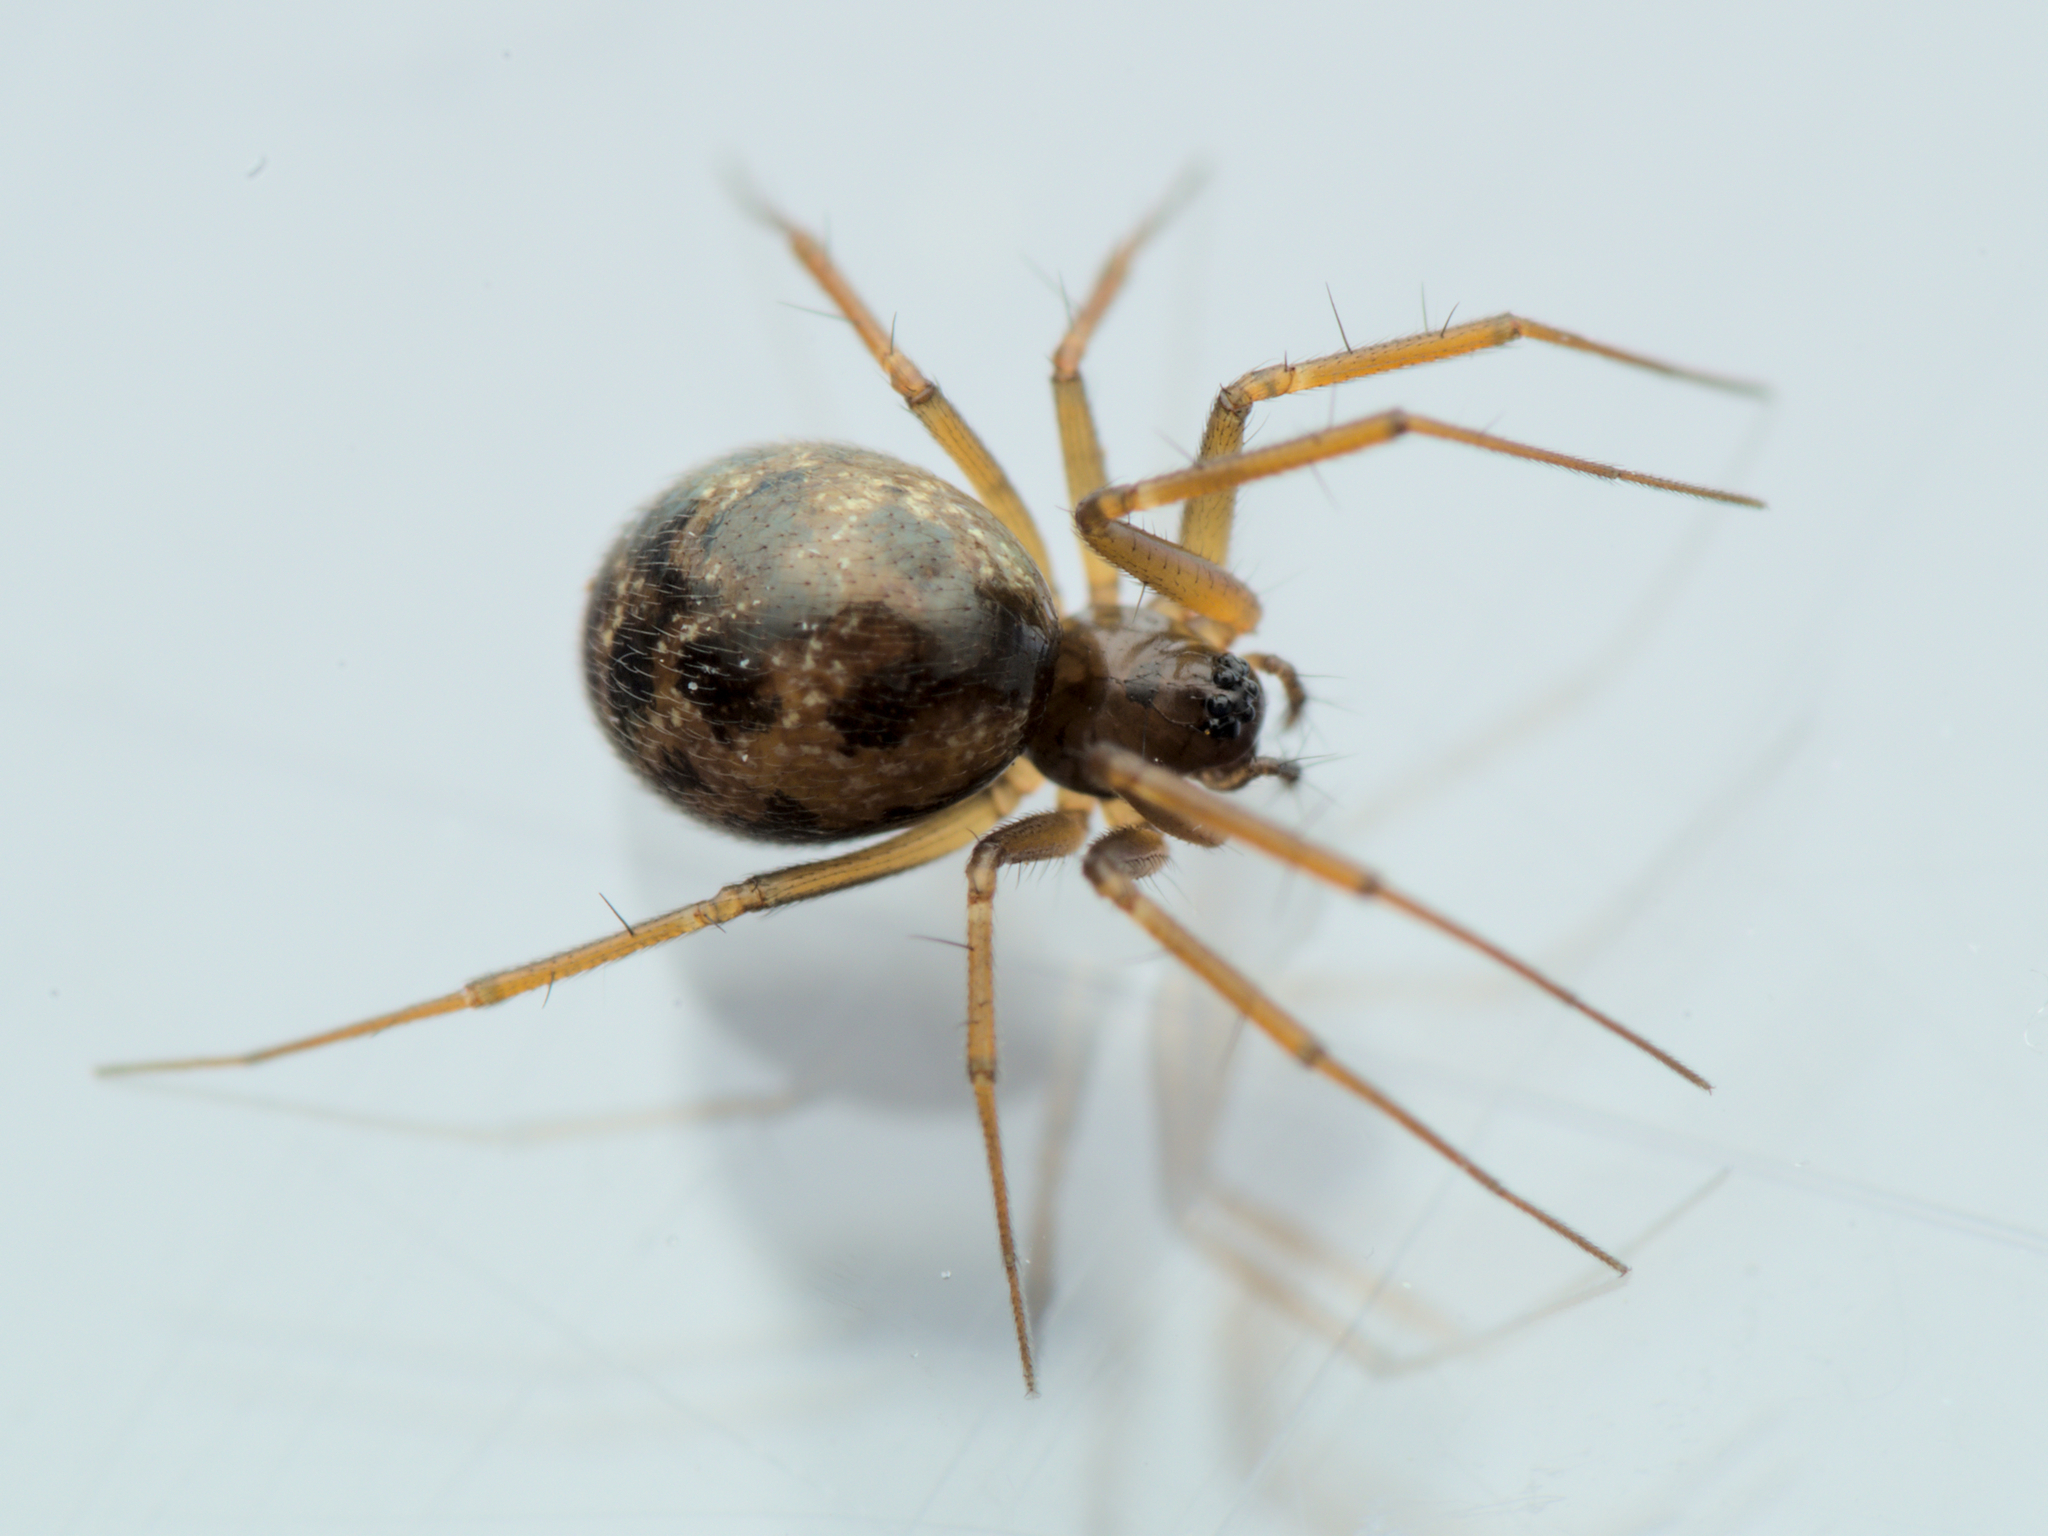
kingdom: Animalia
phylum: Arthropoda
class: Arachnida
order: Araneae
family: Linyphiidae
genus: Tenuiphantes
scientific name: Tenuiphantes tenuis
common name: Dwarf weaver
